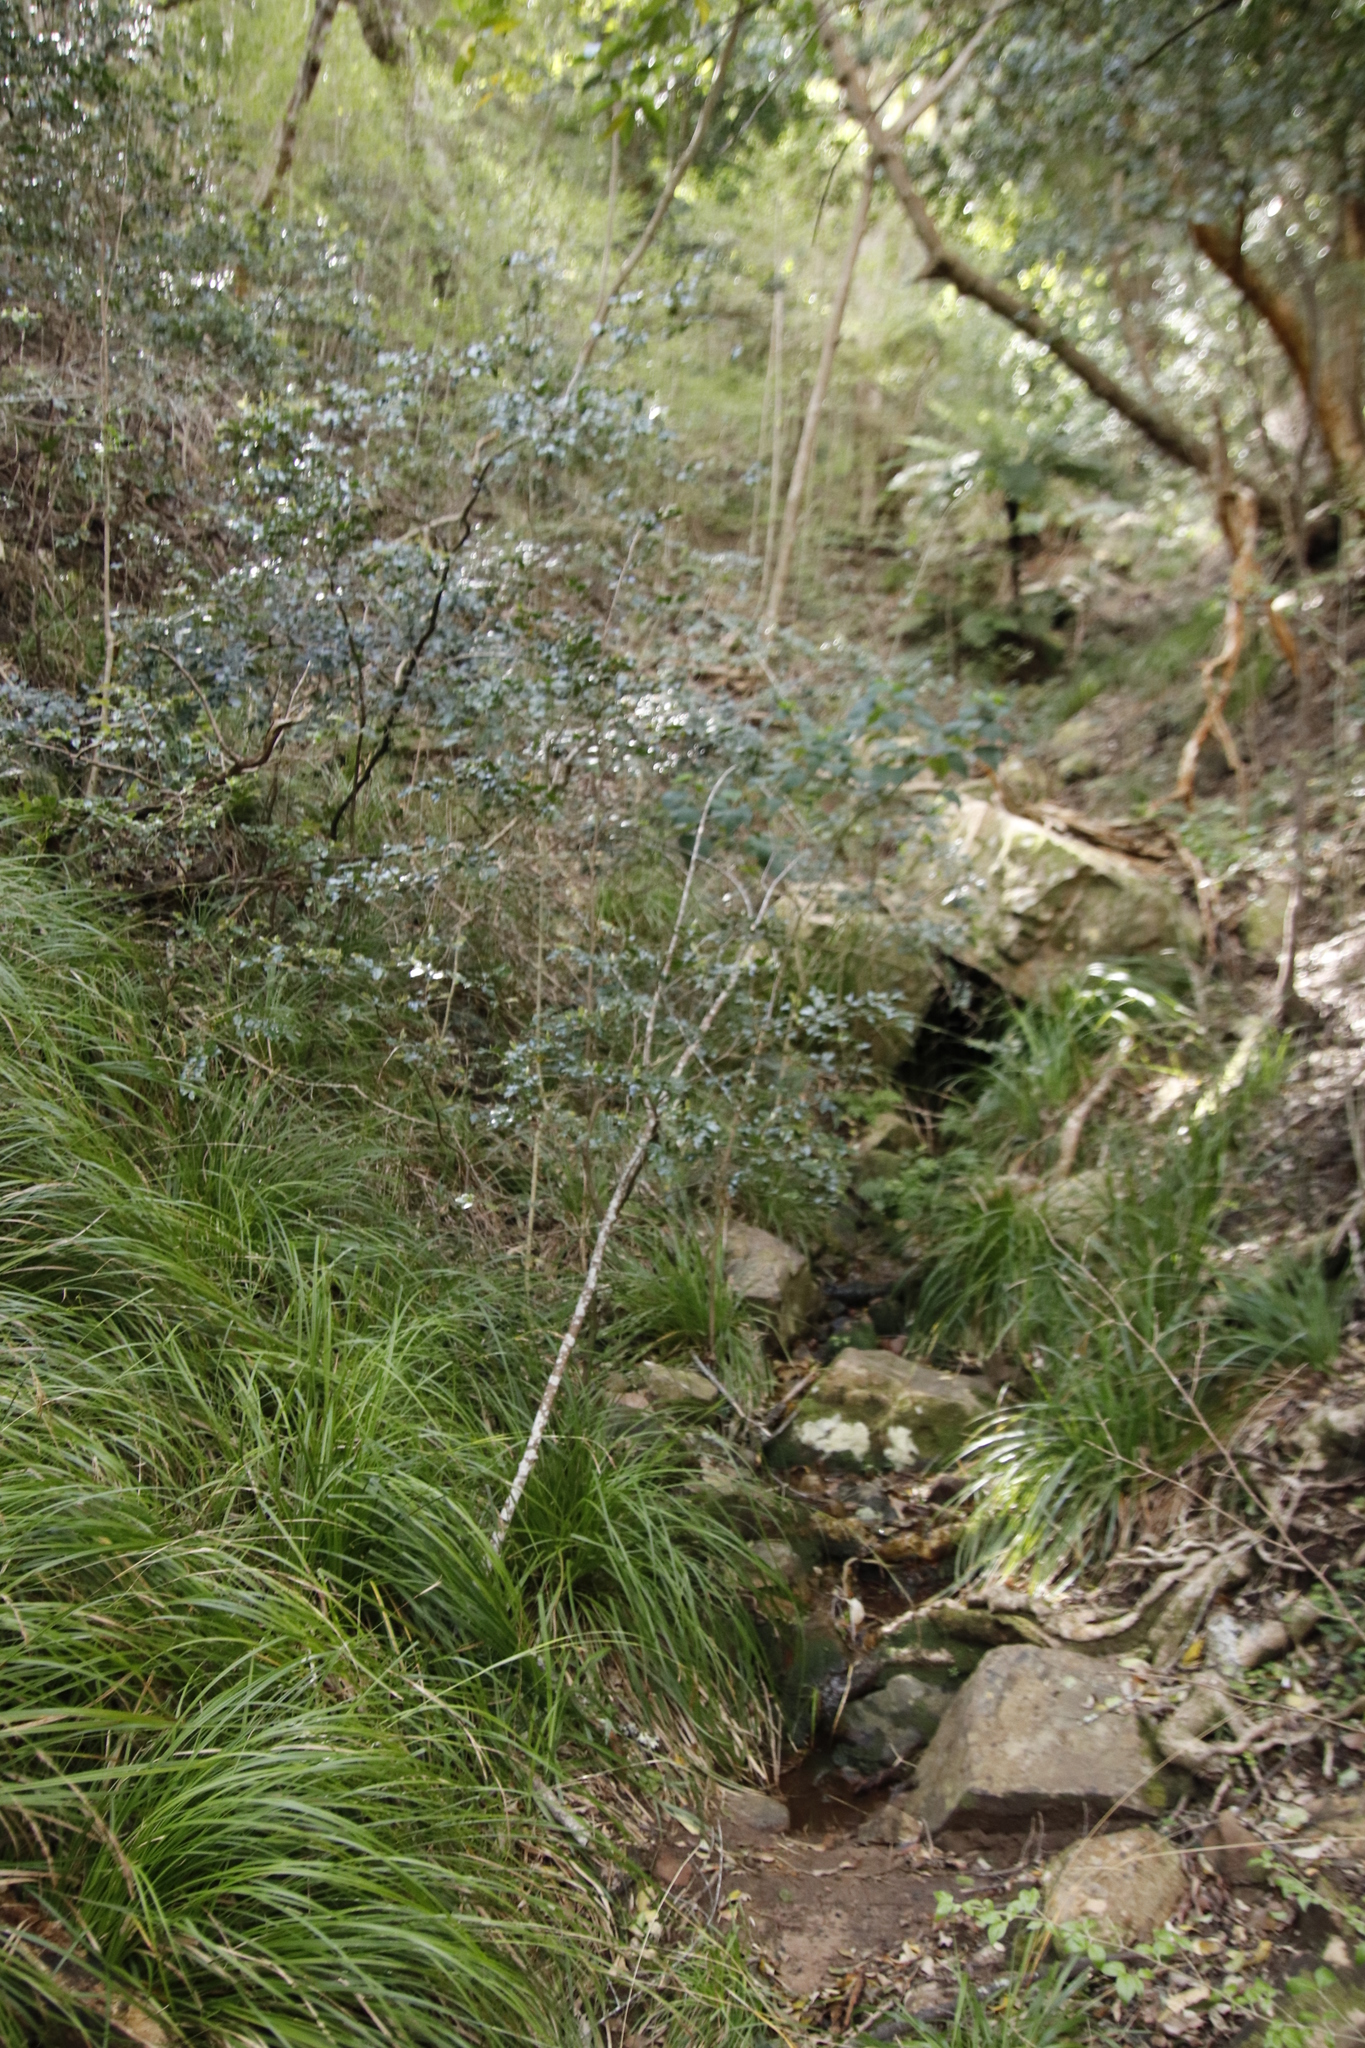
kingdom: Plantae
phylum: Tracheophyta
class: Magnoliopsida
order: Ericales
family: Ebenaceae
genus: Diospyros
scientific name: Diospyros whyteana
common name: Bladder-nut
